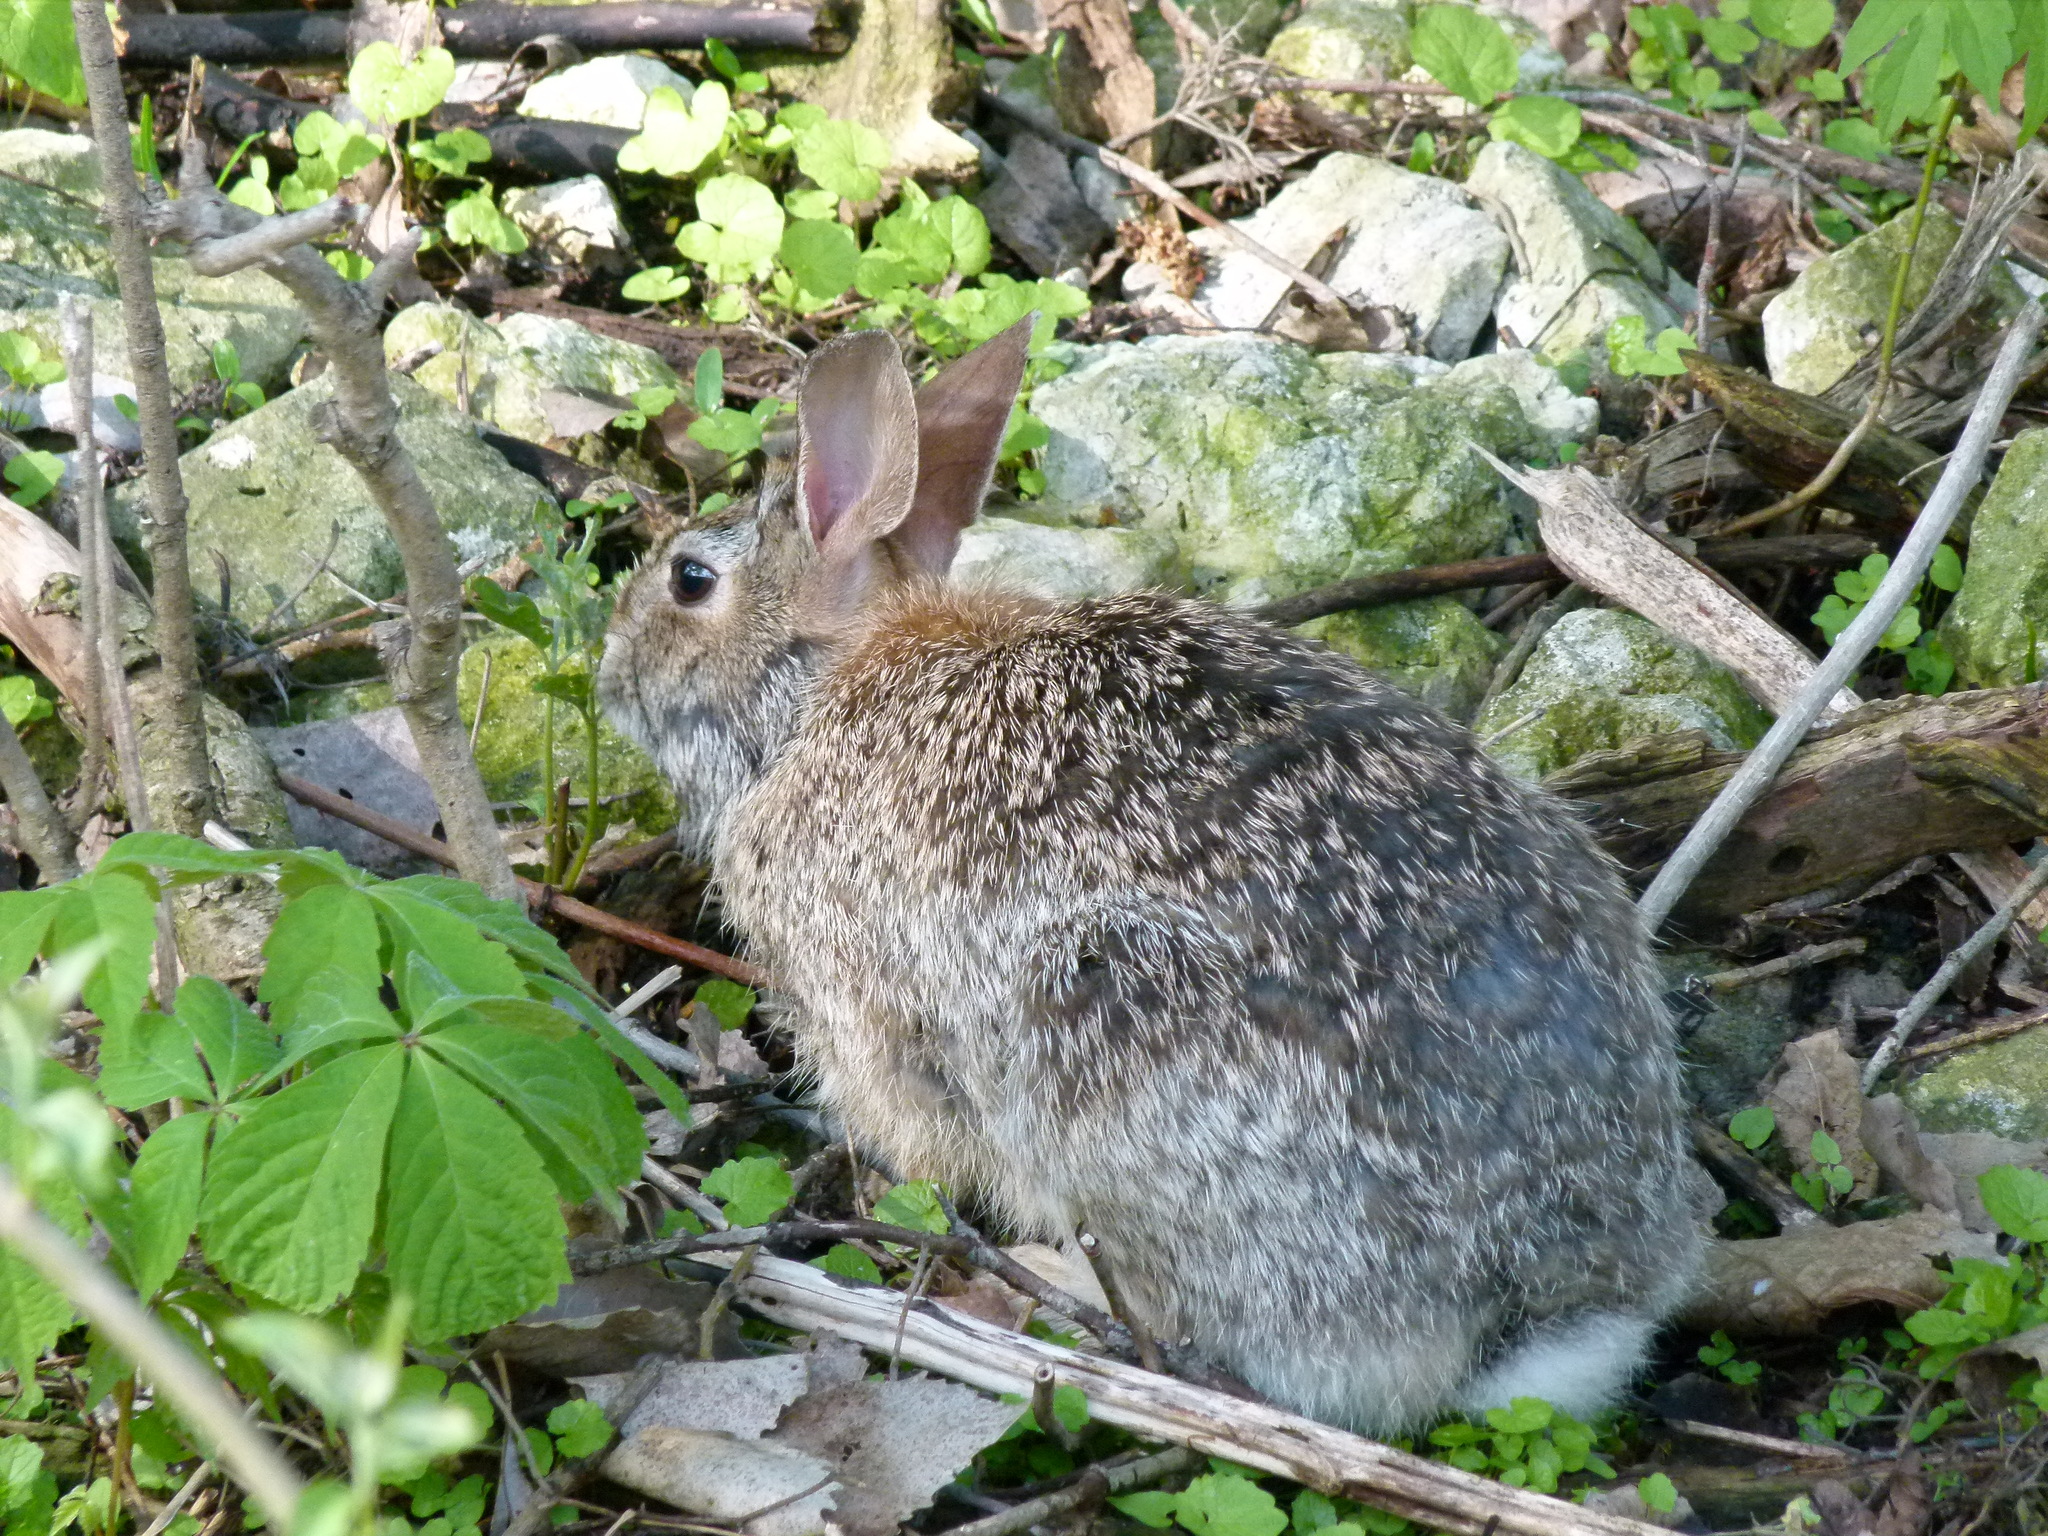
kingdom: Animalia
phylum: Chordata
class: Mammalia
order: Lagomorpha
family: Leporidae
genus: Sylvilagus
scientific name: Sylvilagus floridanus
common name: Eastern cottontail
